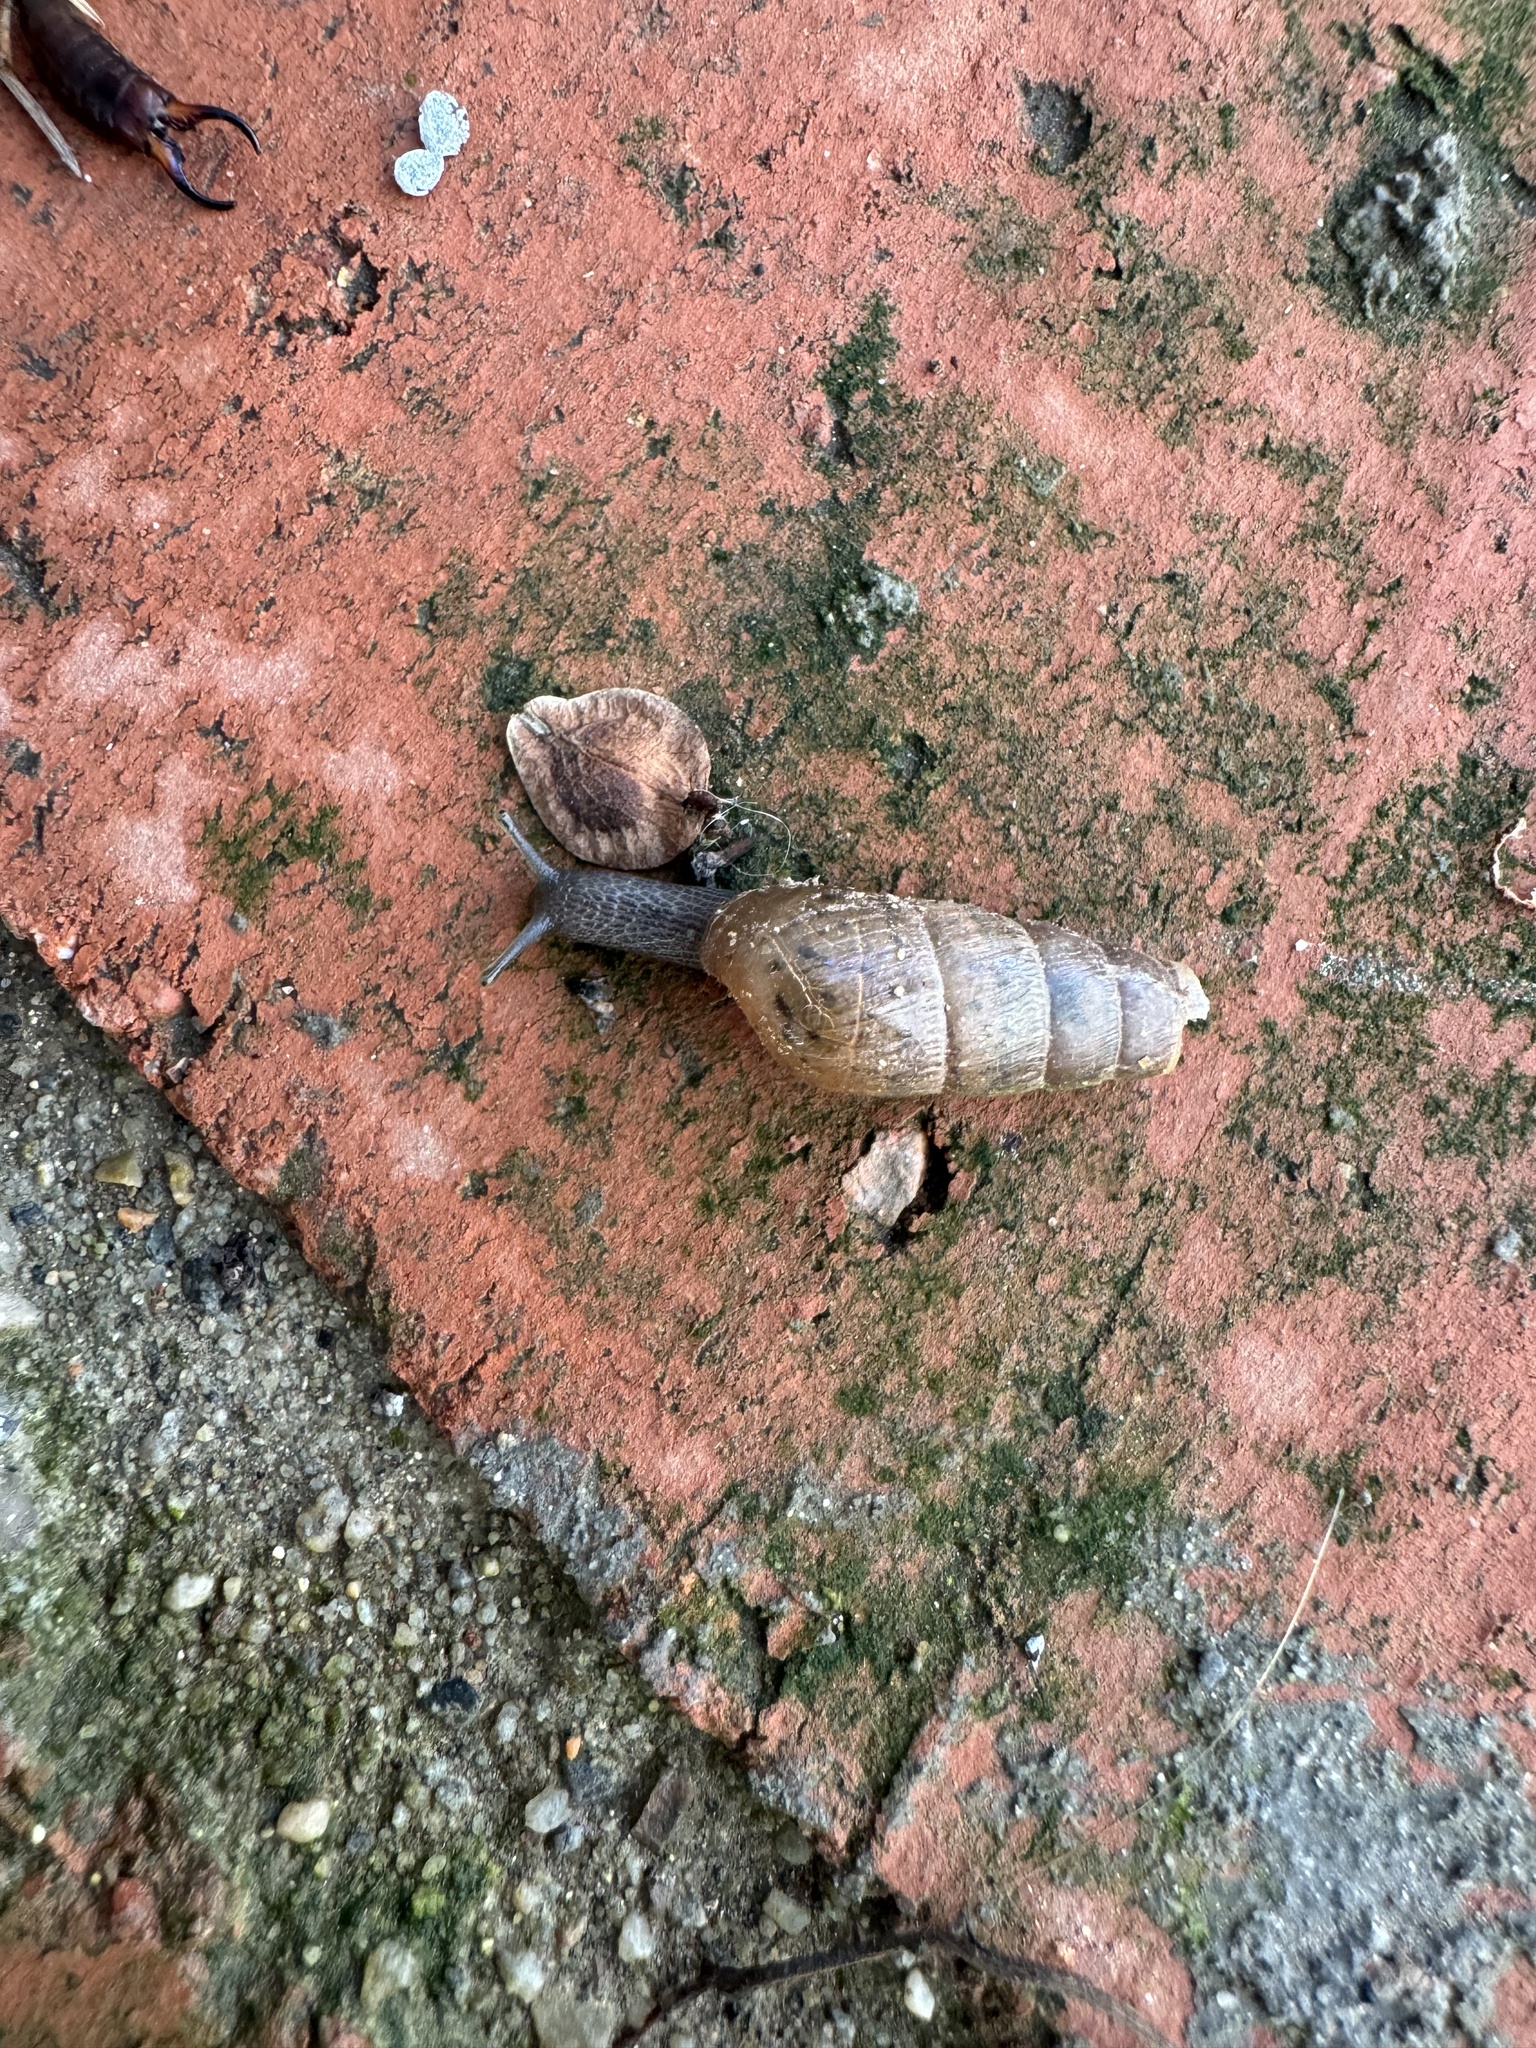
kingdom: Animalia
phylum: Mollusca
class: Gastropoda
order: Stylommatophora
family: Achatinidae
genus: Rumina
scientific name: Rumina decollata
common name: Decollate snail
